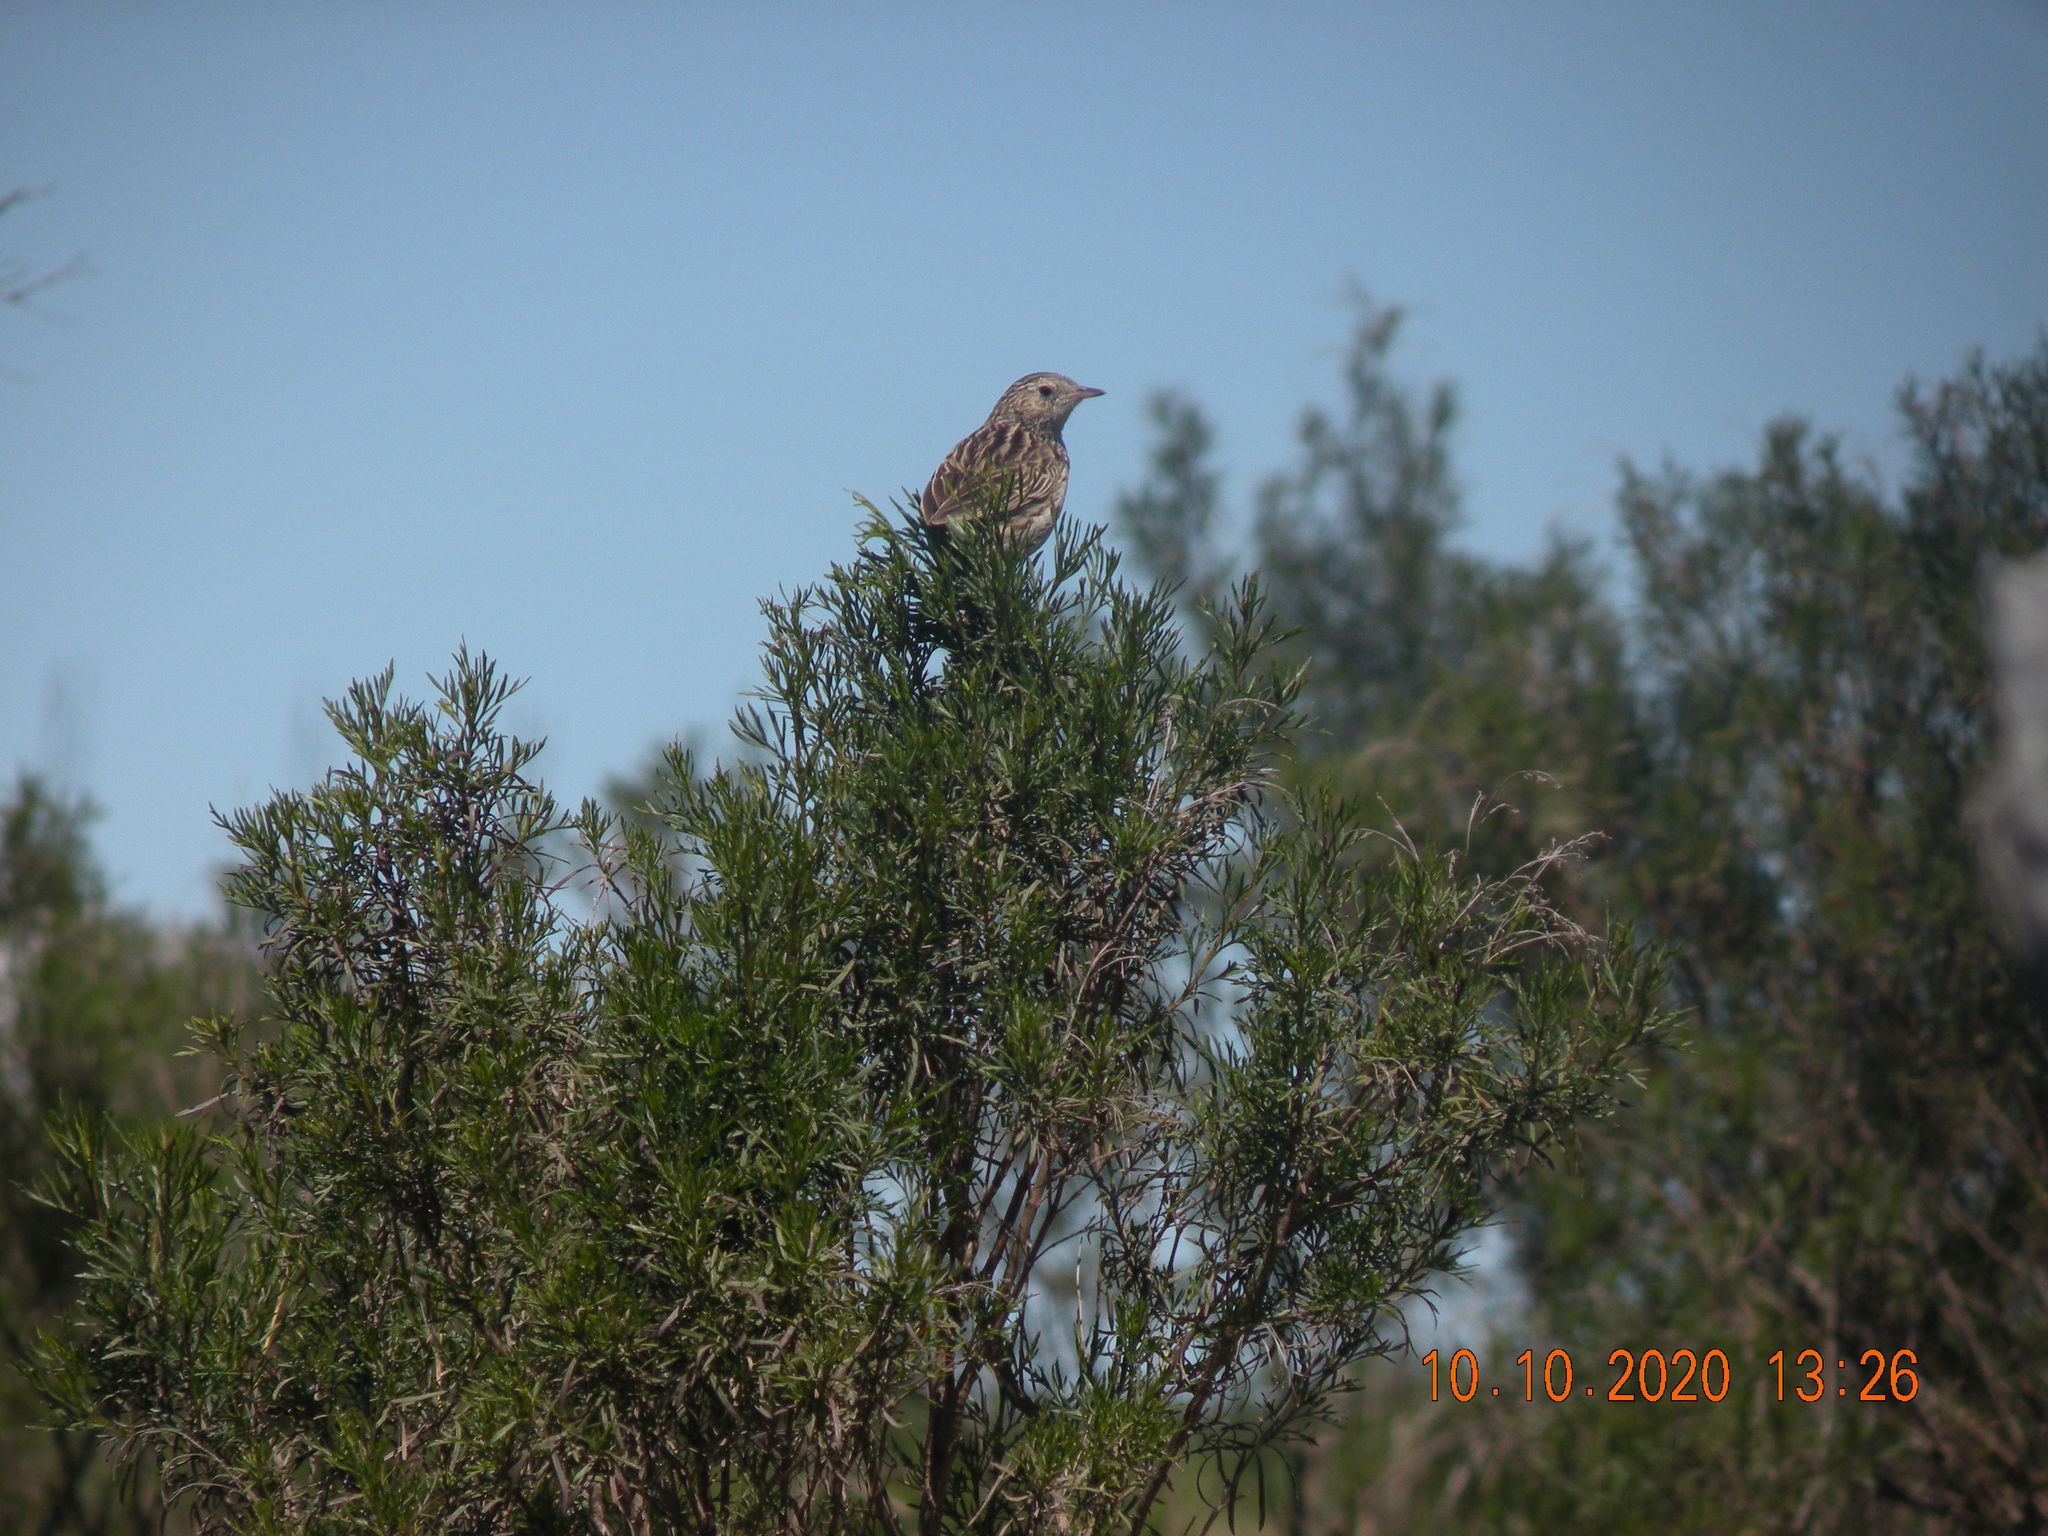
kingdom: Animalia
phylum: Chordata
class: Aves
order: Passeriformes
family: Motacillidae
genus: Anthus
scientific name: Anthus hellmayri
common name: Hellmayr's pipit
